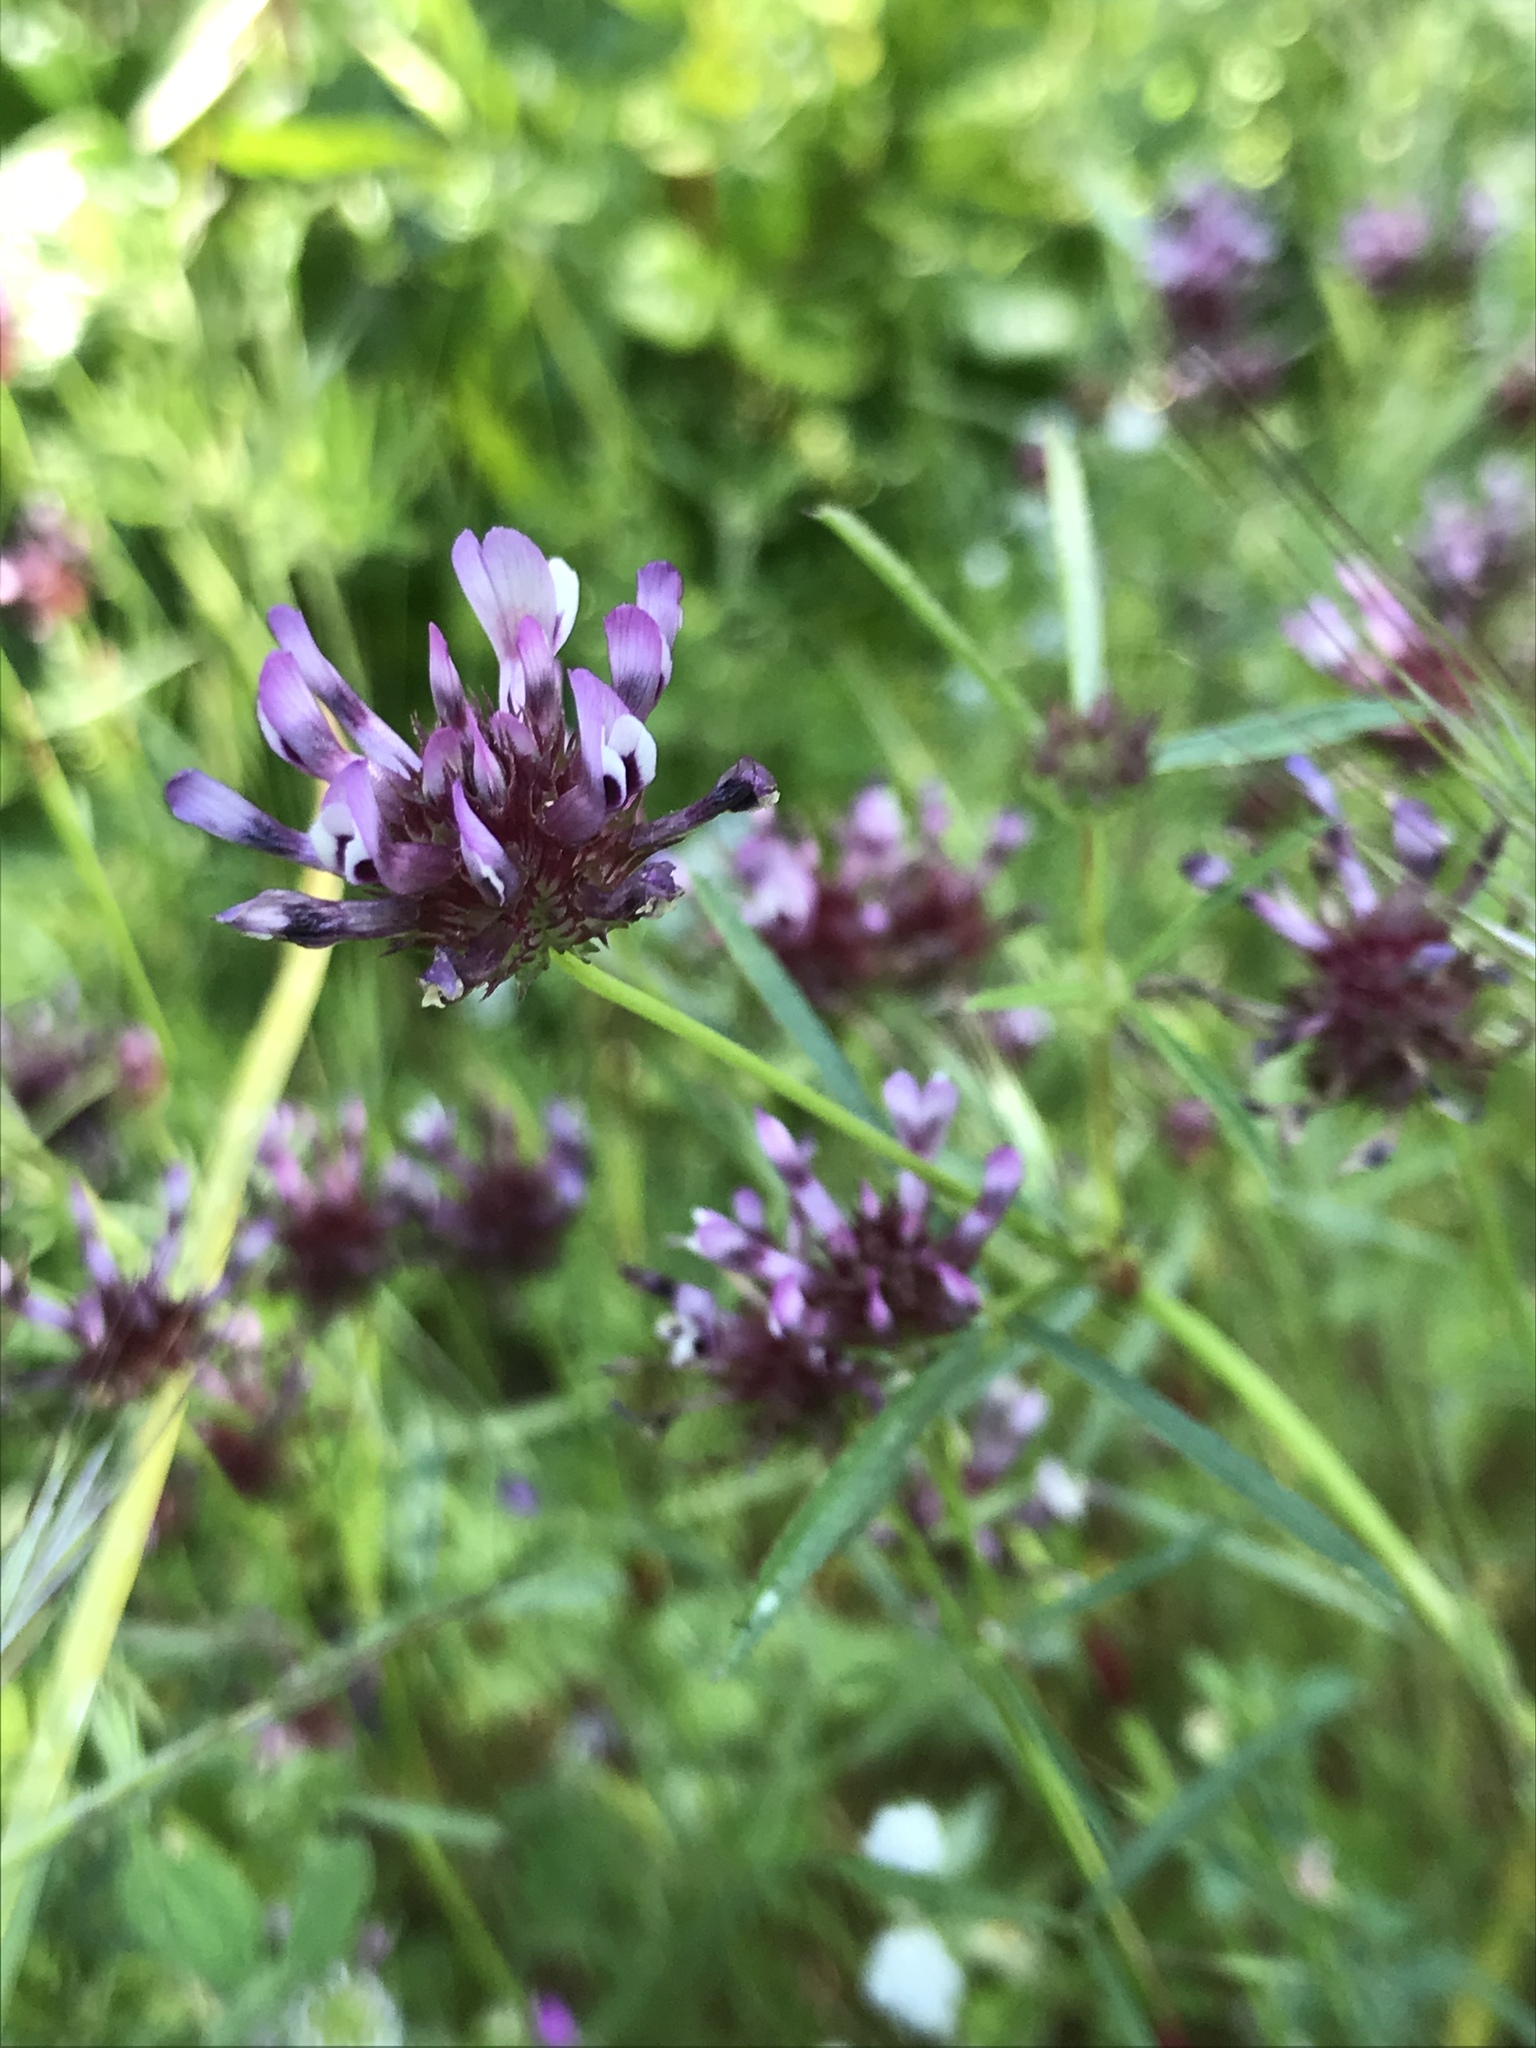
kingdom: Plantae
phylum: Tracheophyta
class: Magnoliopsida
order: Fabales
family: Fabaceae
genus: Trifolium
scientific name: Trifolium willdenovii
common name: Tomcat clover
